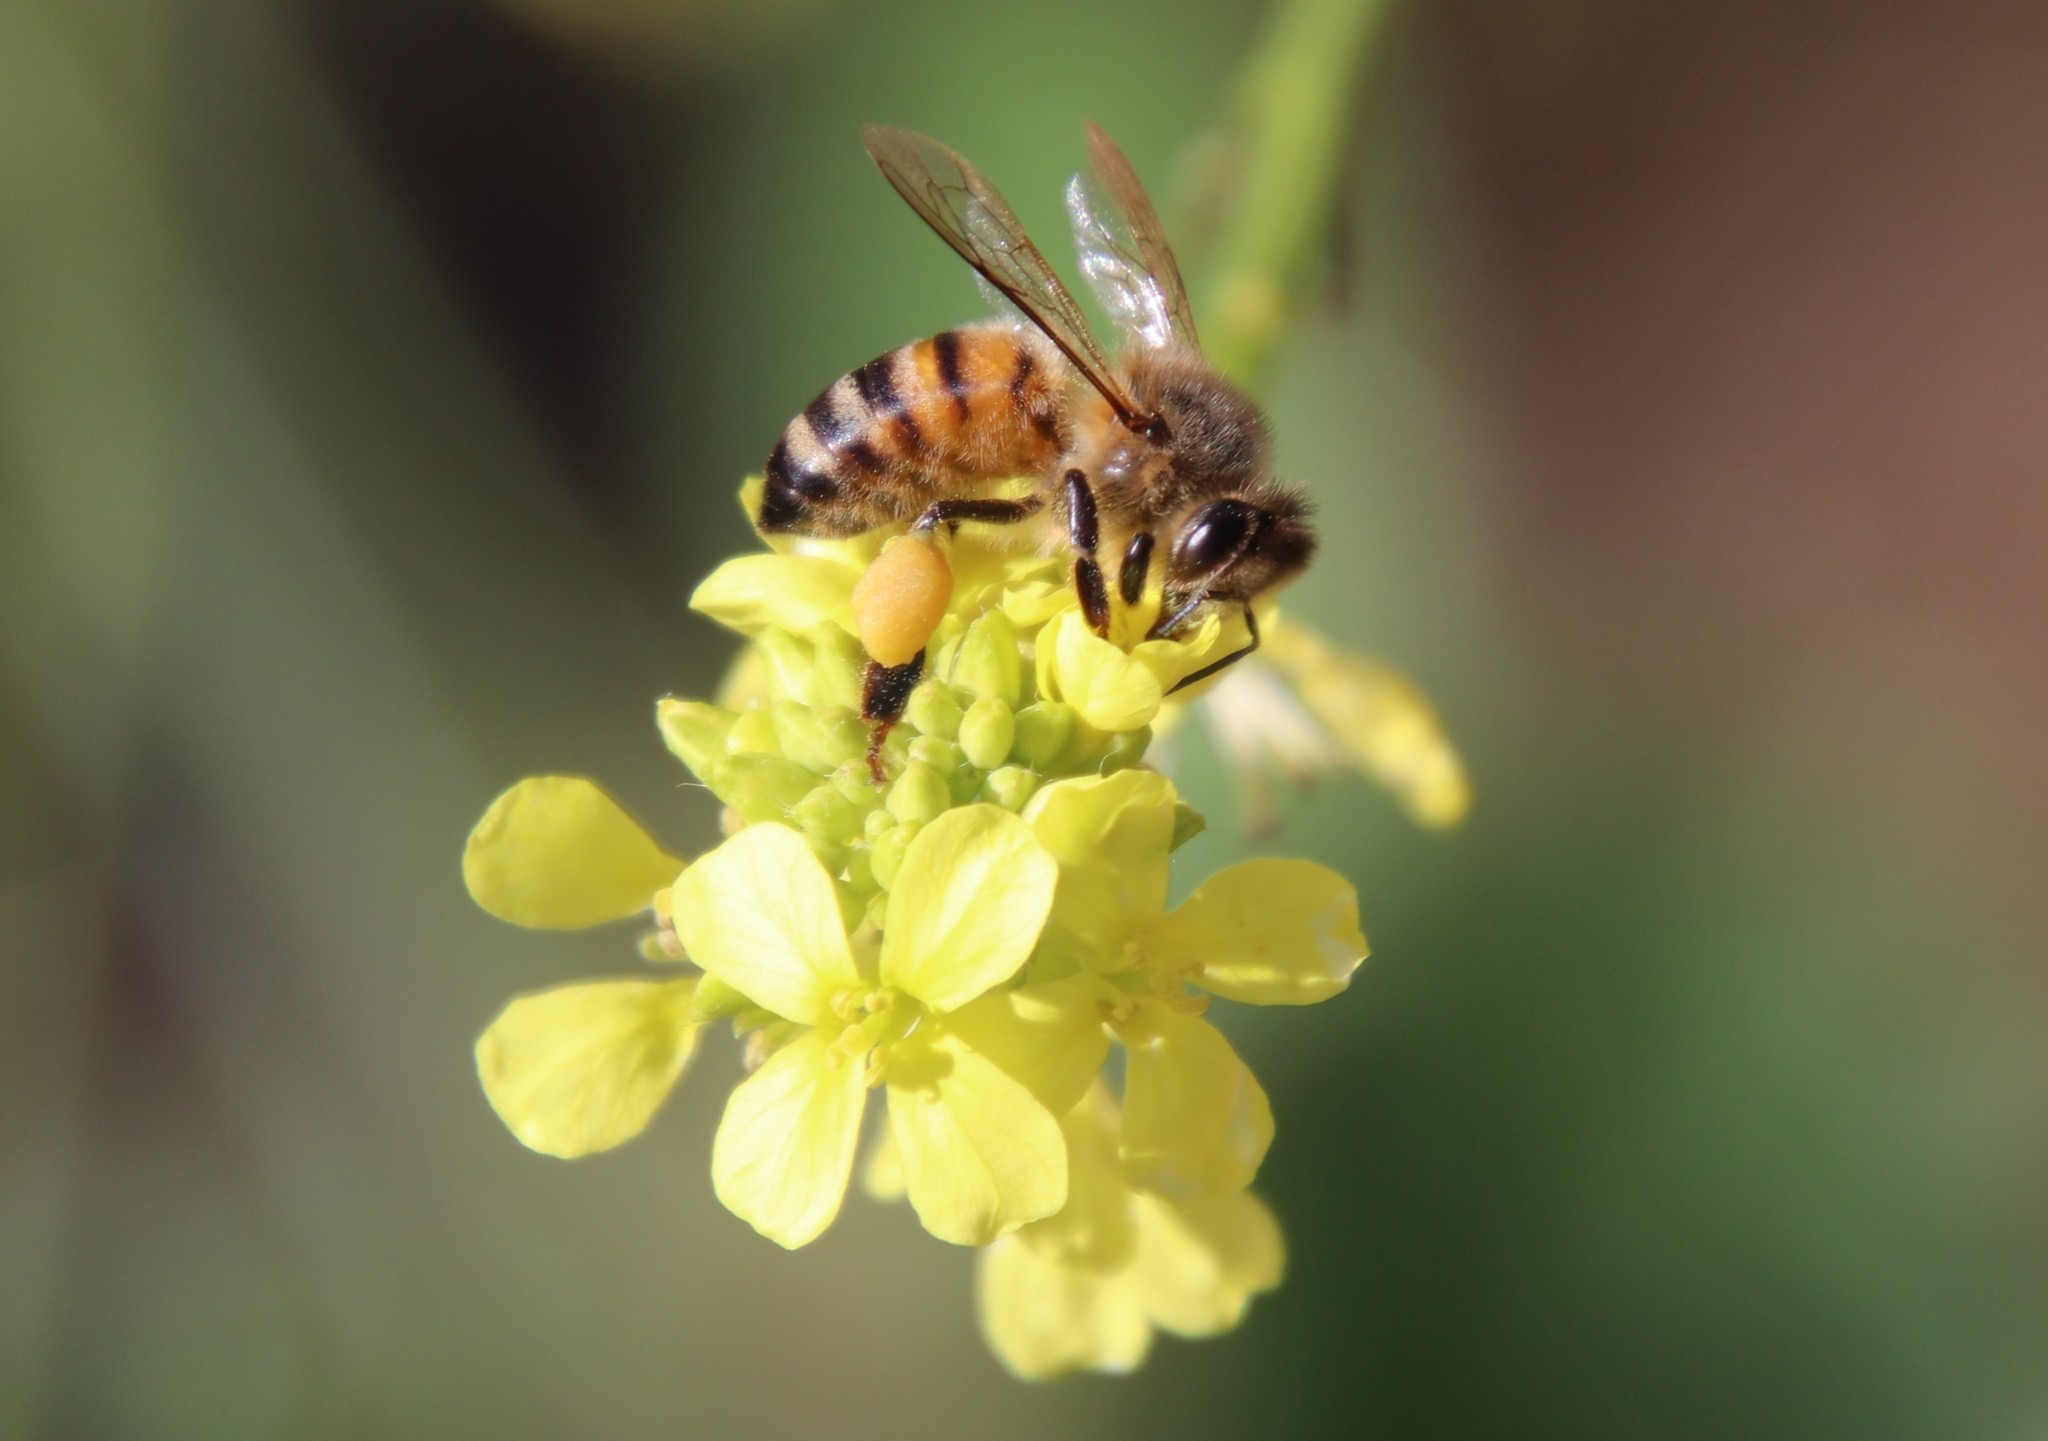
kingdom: Animalia
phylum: Arthropoda
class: Insecta
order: Hymenoptera
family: Apidae
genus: Apis
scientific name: Apis mellifera
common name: Honey bee
